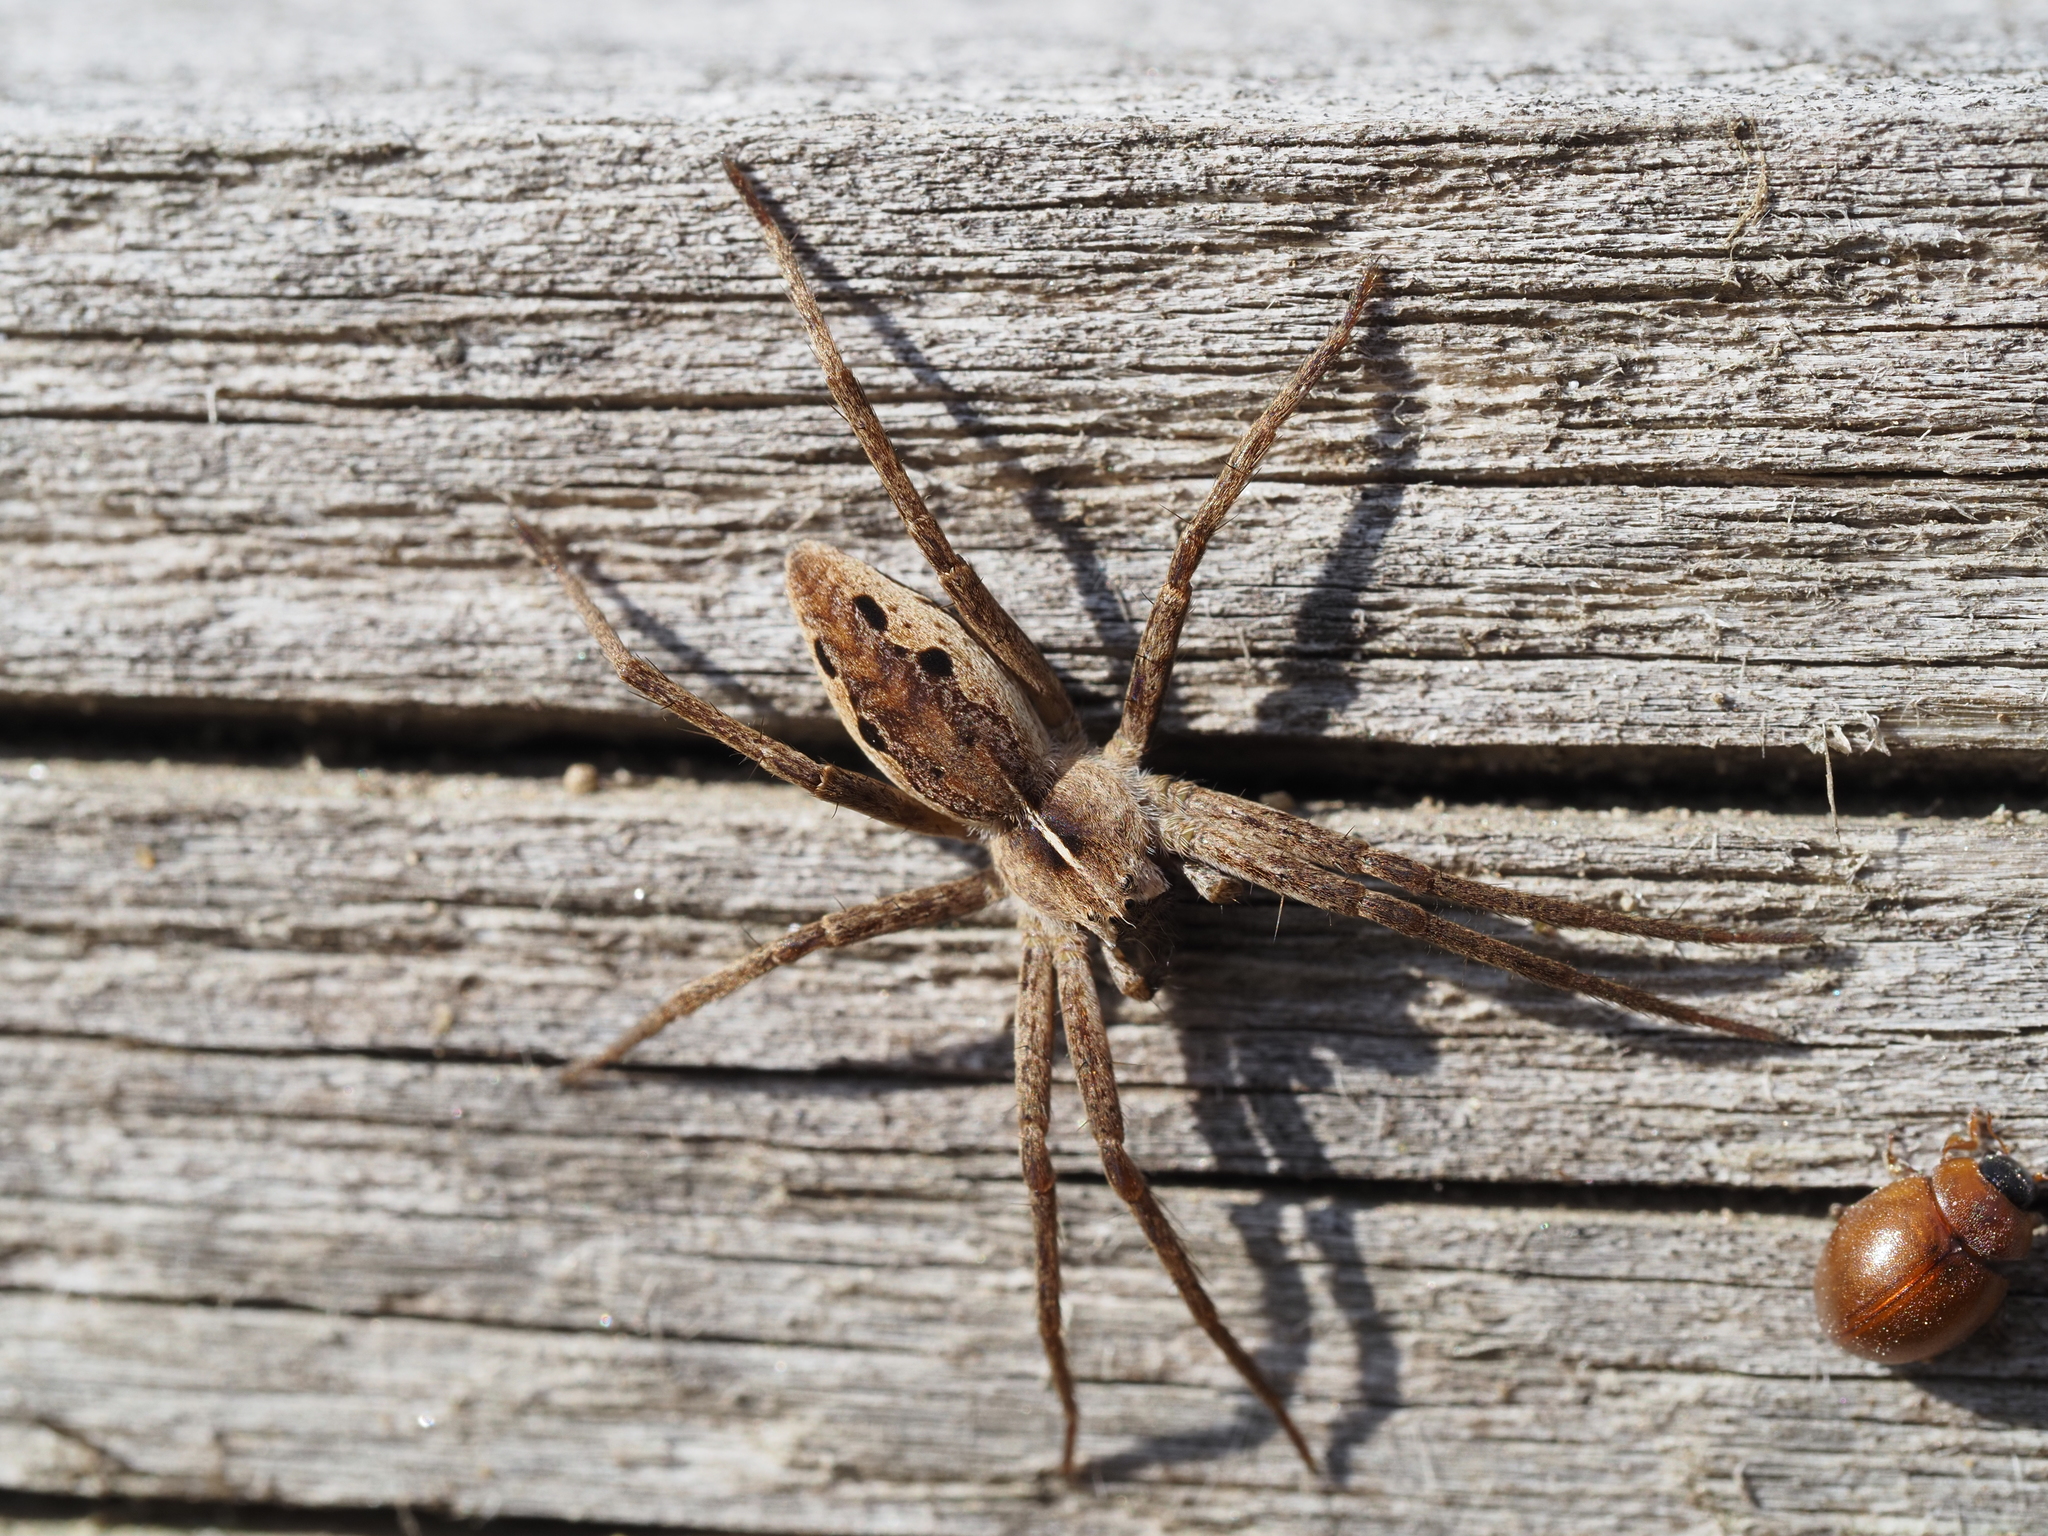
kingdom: Animalia
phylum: Arthropoda
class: Arachnida
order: Araneae
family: Pisauridae
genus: Pisaura
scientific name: Pisaura mirabilis
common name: Tent spider
